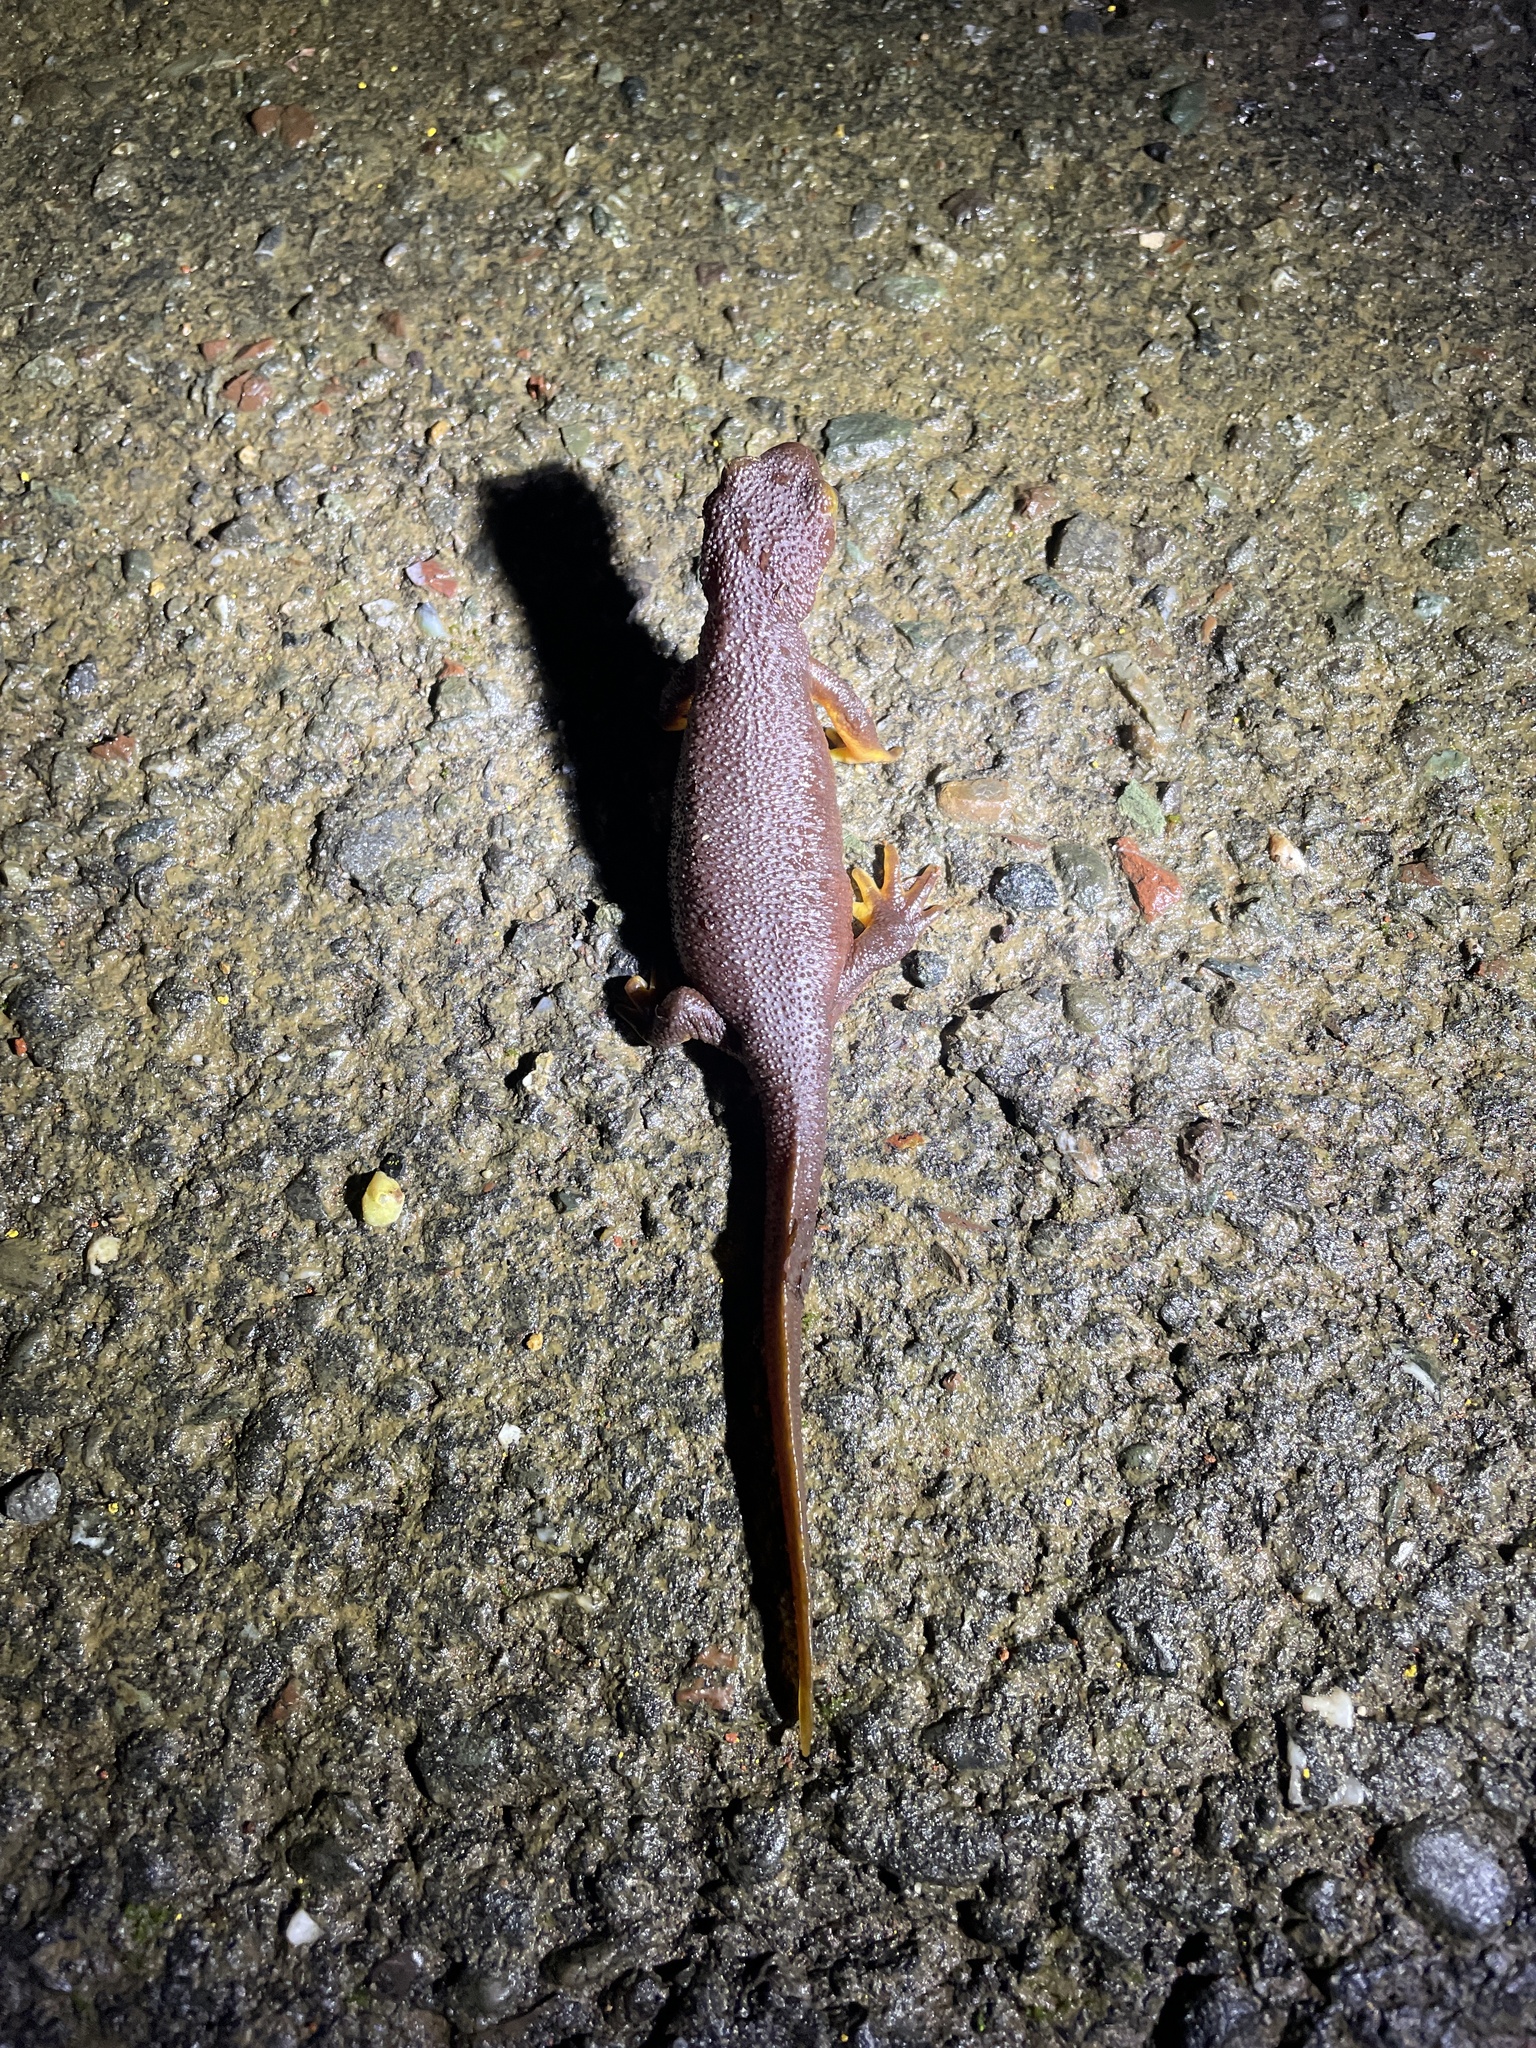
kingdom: Animalia
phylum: Chordata
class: Amphibia
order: Caudata
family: Salamandridae
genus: Taricha
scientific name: Taricha torosa
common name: California newt
